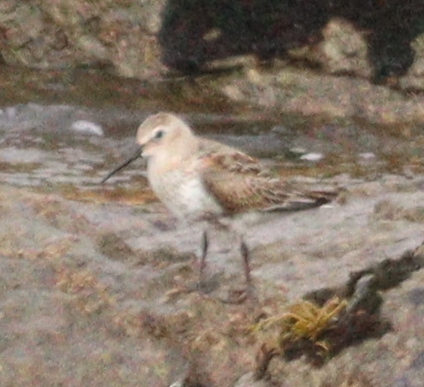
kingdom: Animalia
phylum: Chordata
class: Aves
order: Charadriiformes
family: Scolopacidae
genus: Calidris
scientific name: Calidris alpina
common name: Dunlin
